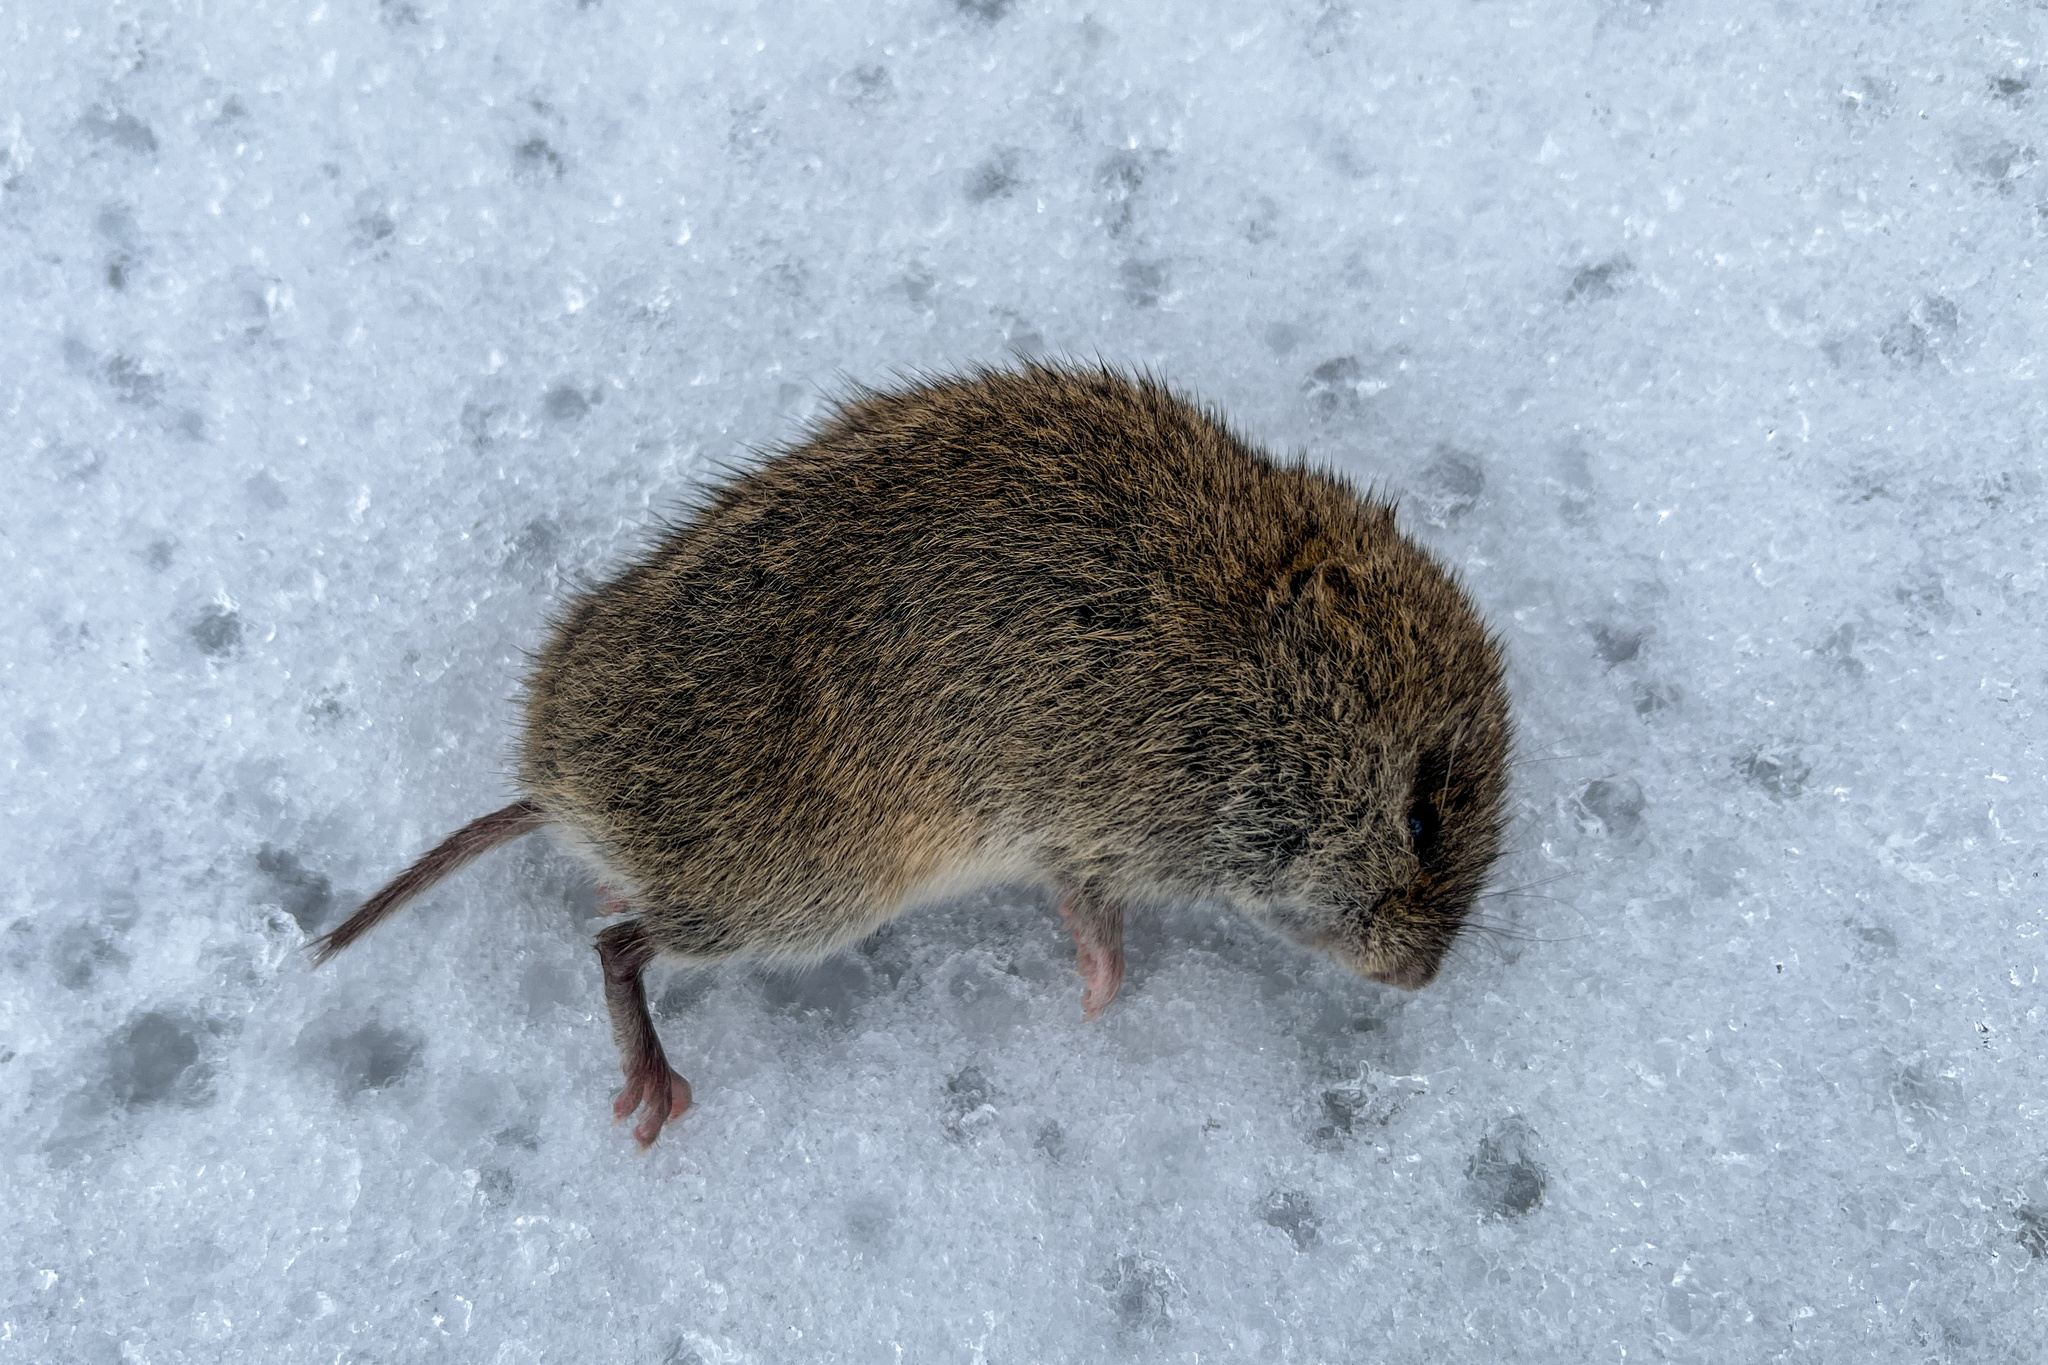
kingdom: Animalia
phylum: Chordata
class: Mammalia
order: Rodentia
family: Cricetidae
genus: Microtus
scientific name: Microtus agrestis
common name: Field vole
